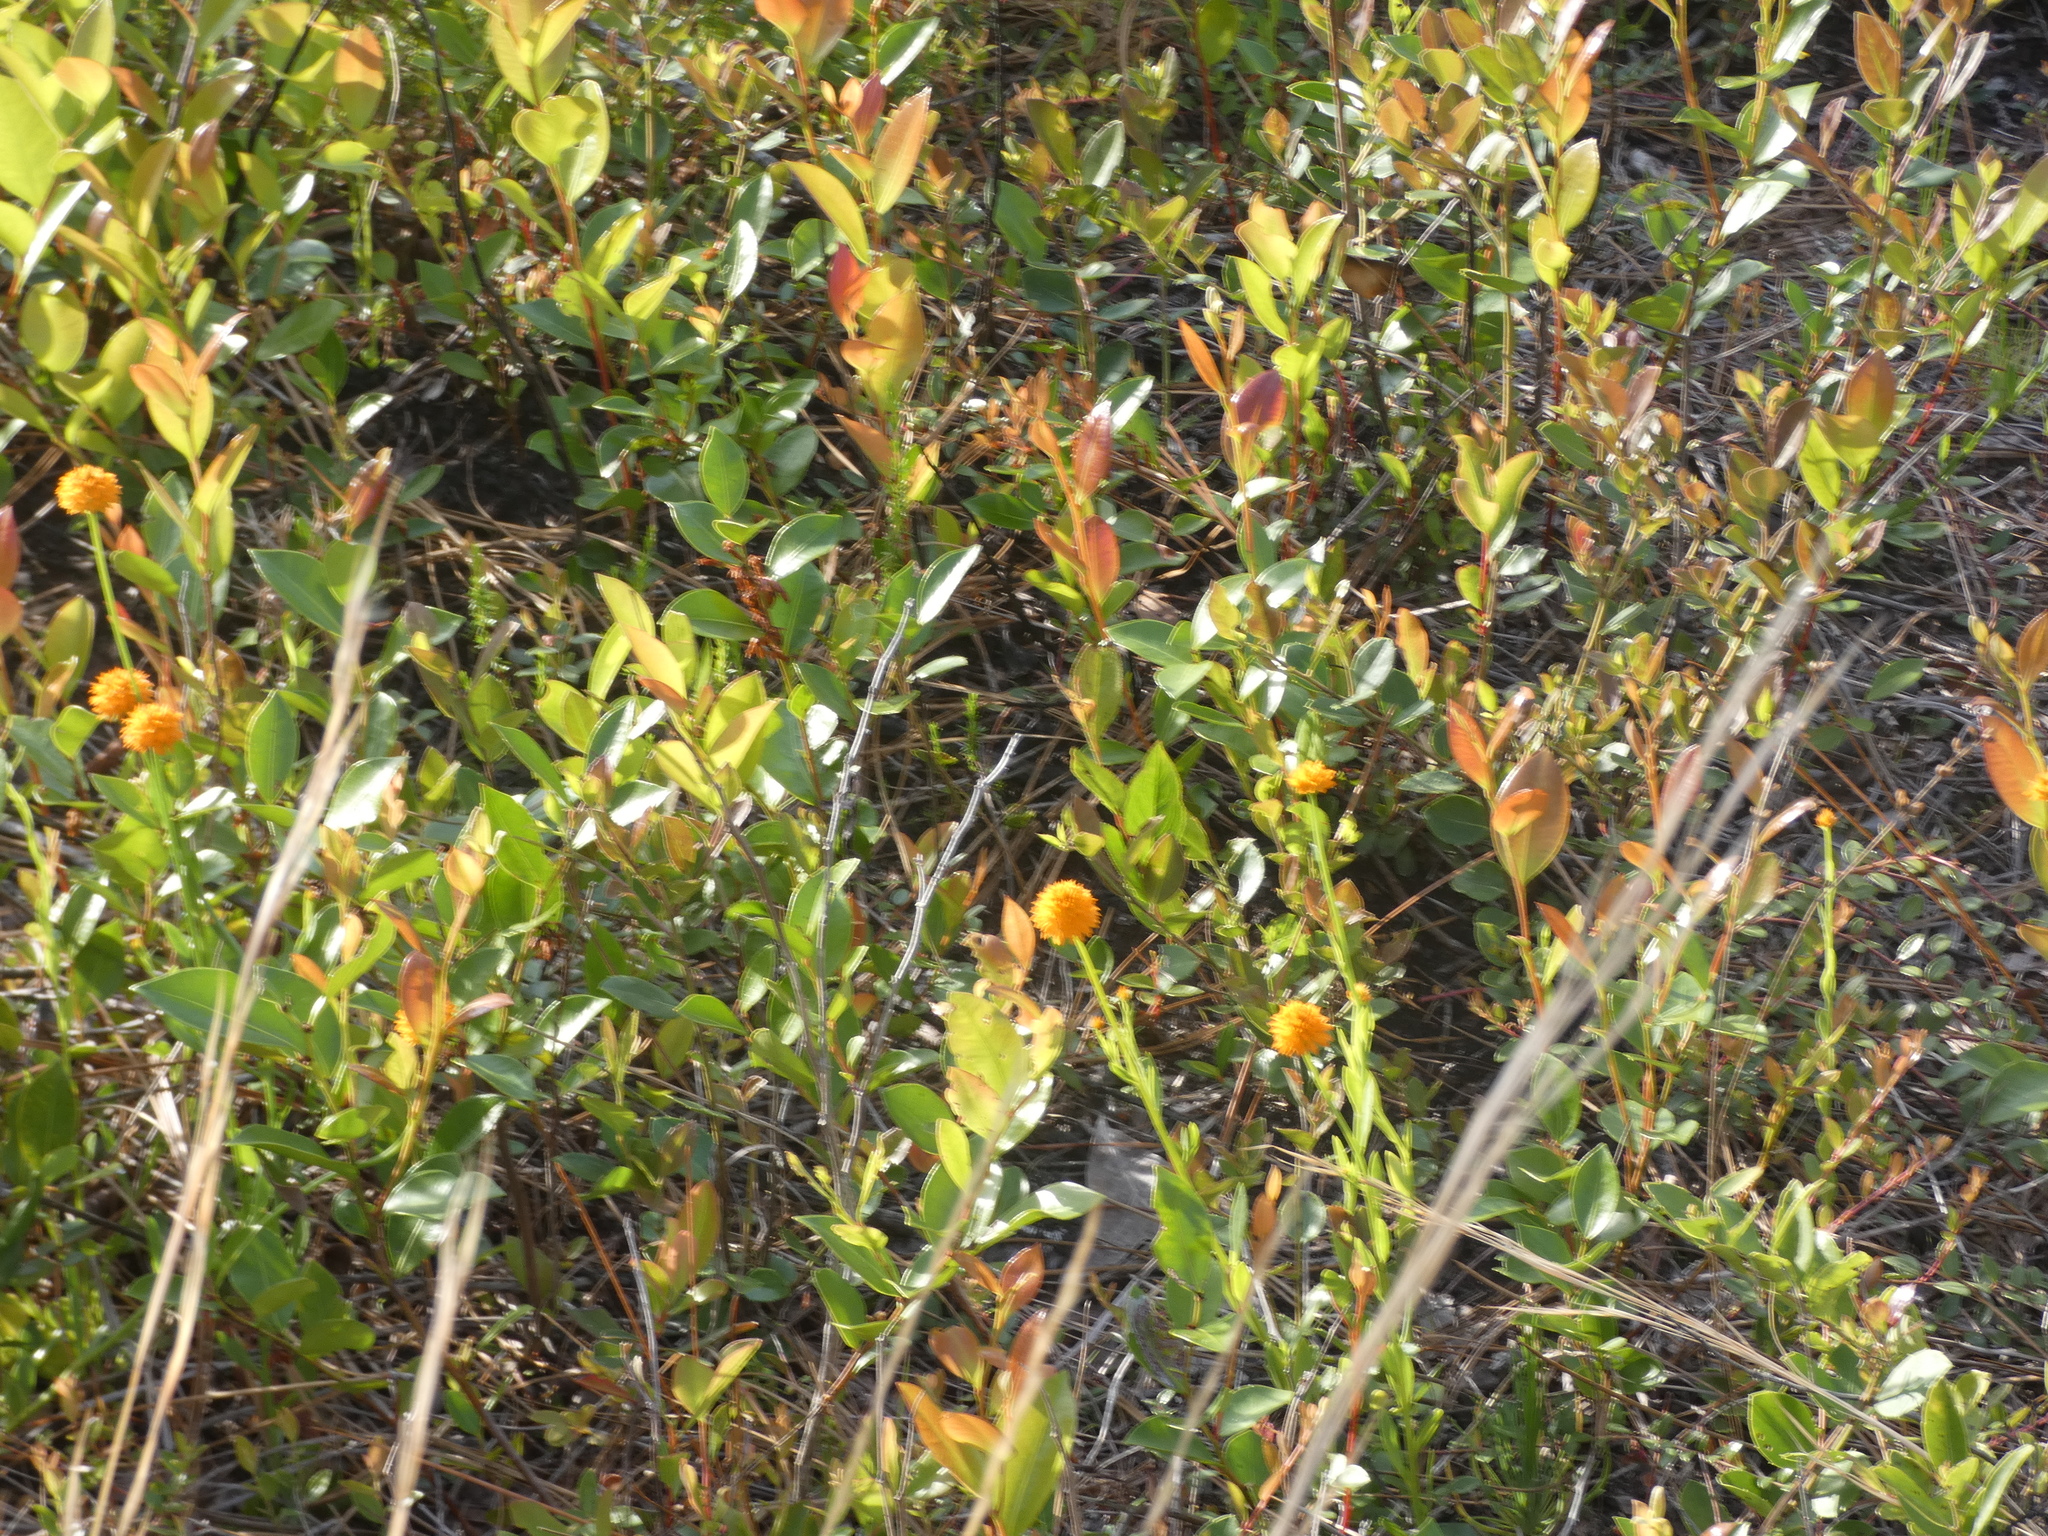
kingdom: Plantae
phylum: Tracheophyta
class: Magnoliopsida
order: Fabales
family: Polygalaceae
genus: Polygala
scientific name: Polygala lutea
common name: Orange milkwort
